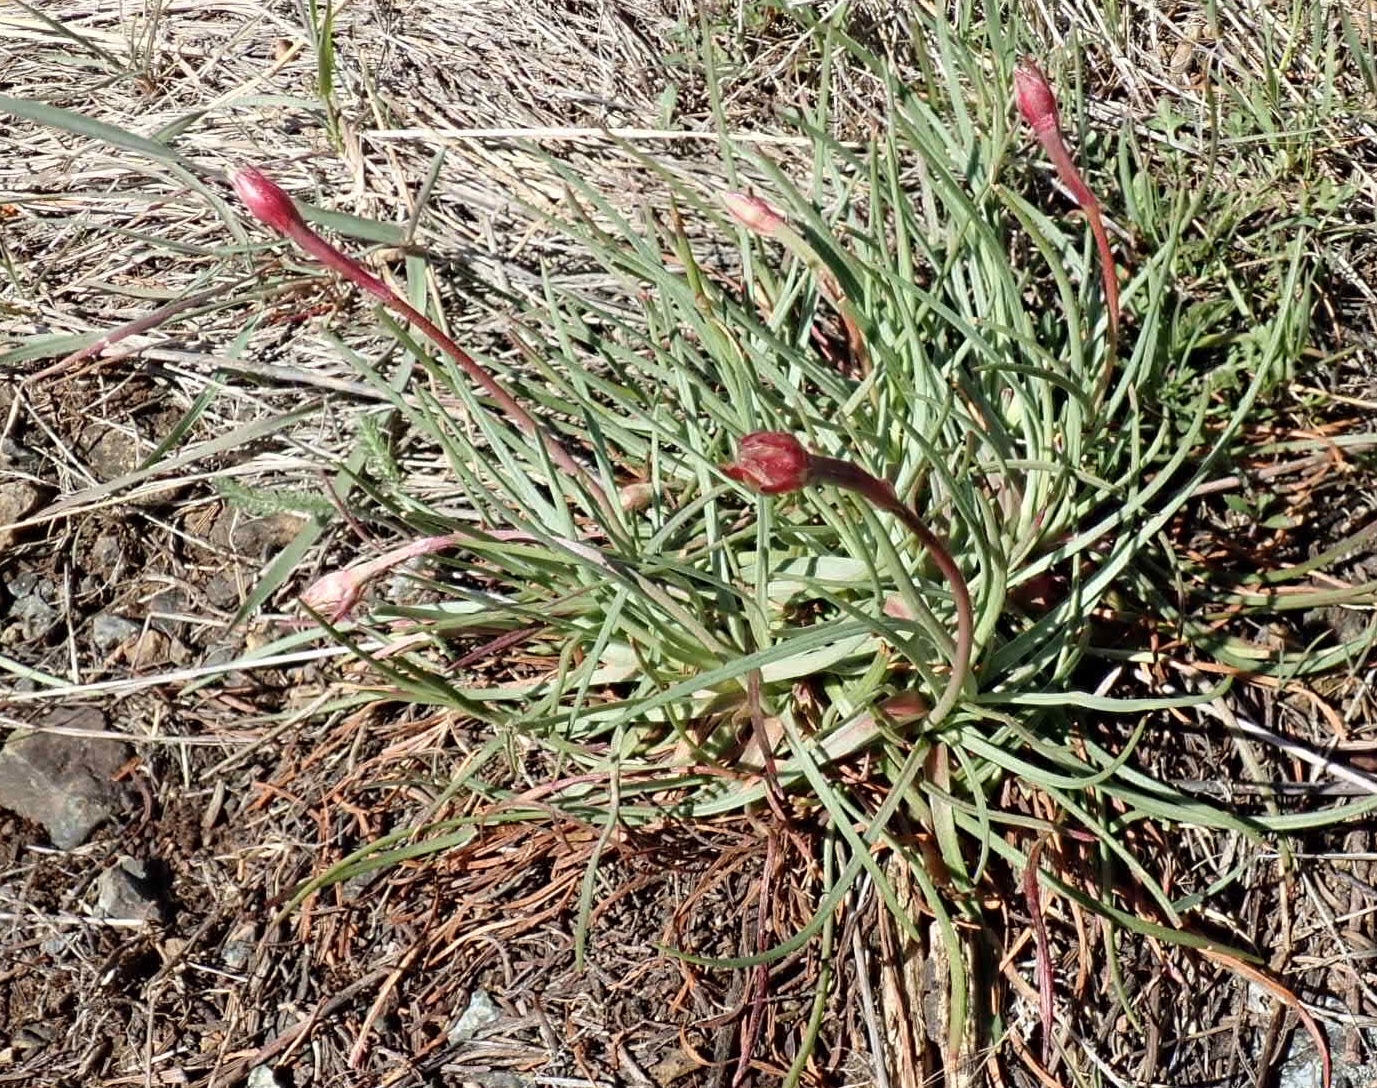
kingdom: Plantae
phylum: Tracheophyta
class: Magnoliopsida
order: Caryophyllales
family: Plumbaginaceae
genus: Armeria
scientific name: Armeria maritima
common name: Thrift
